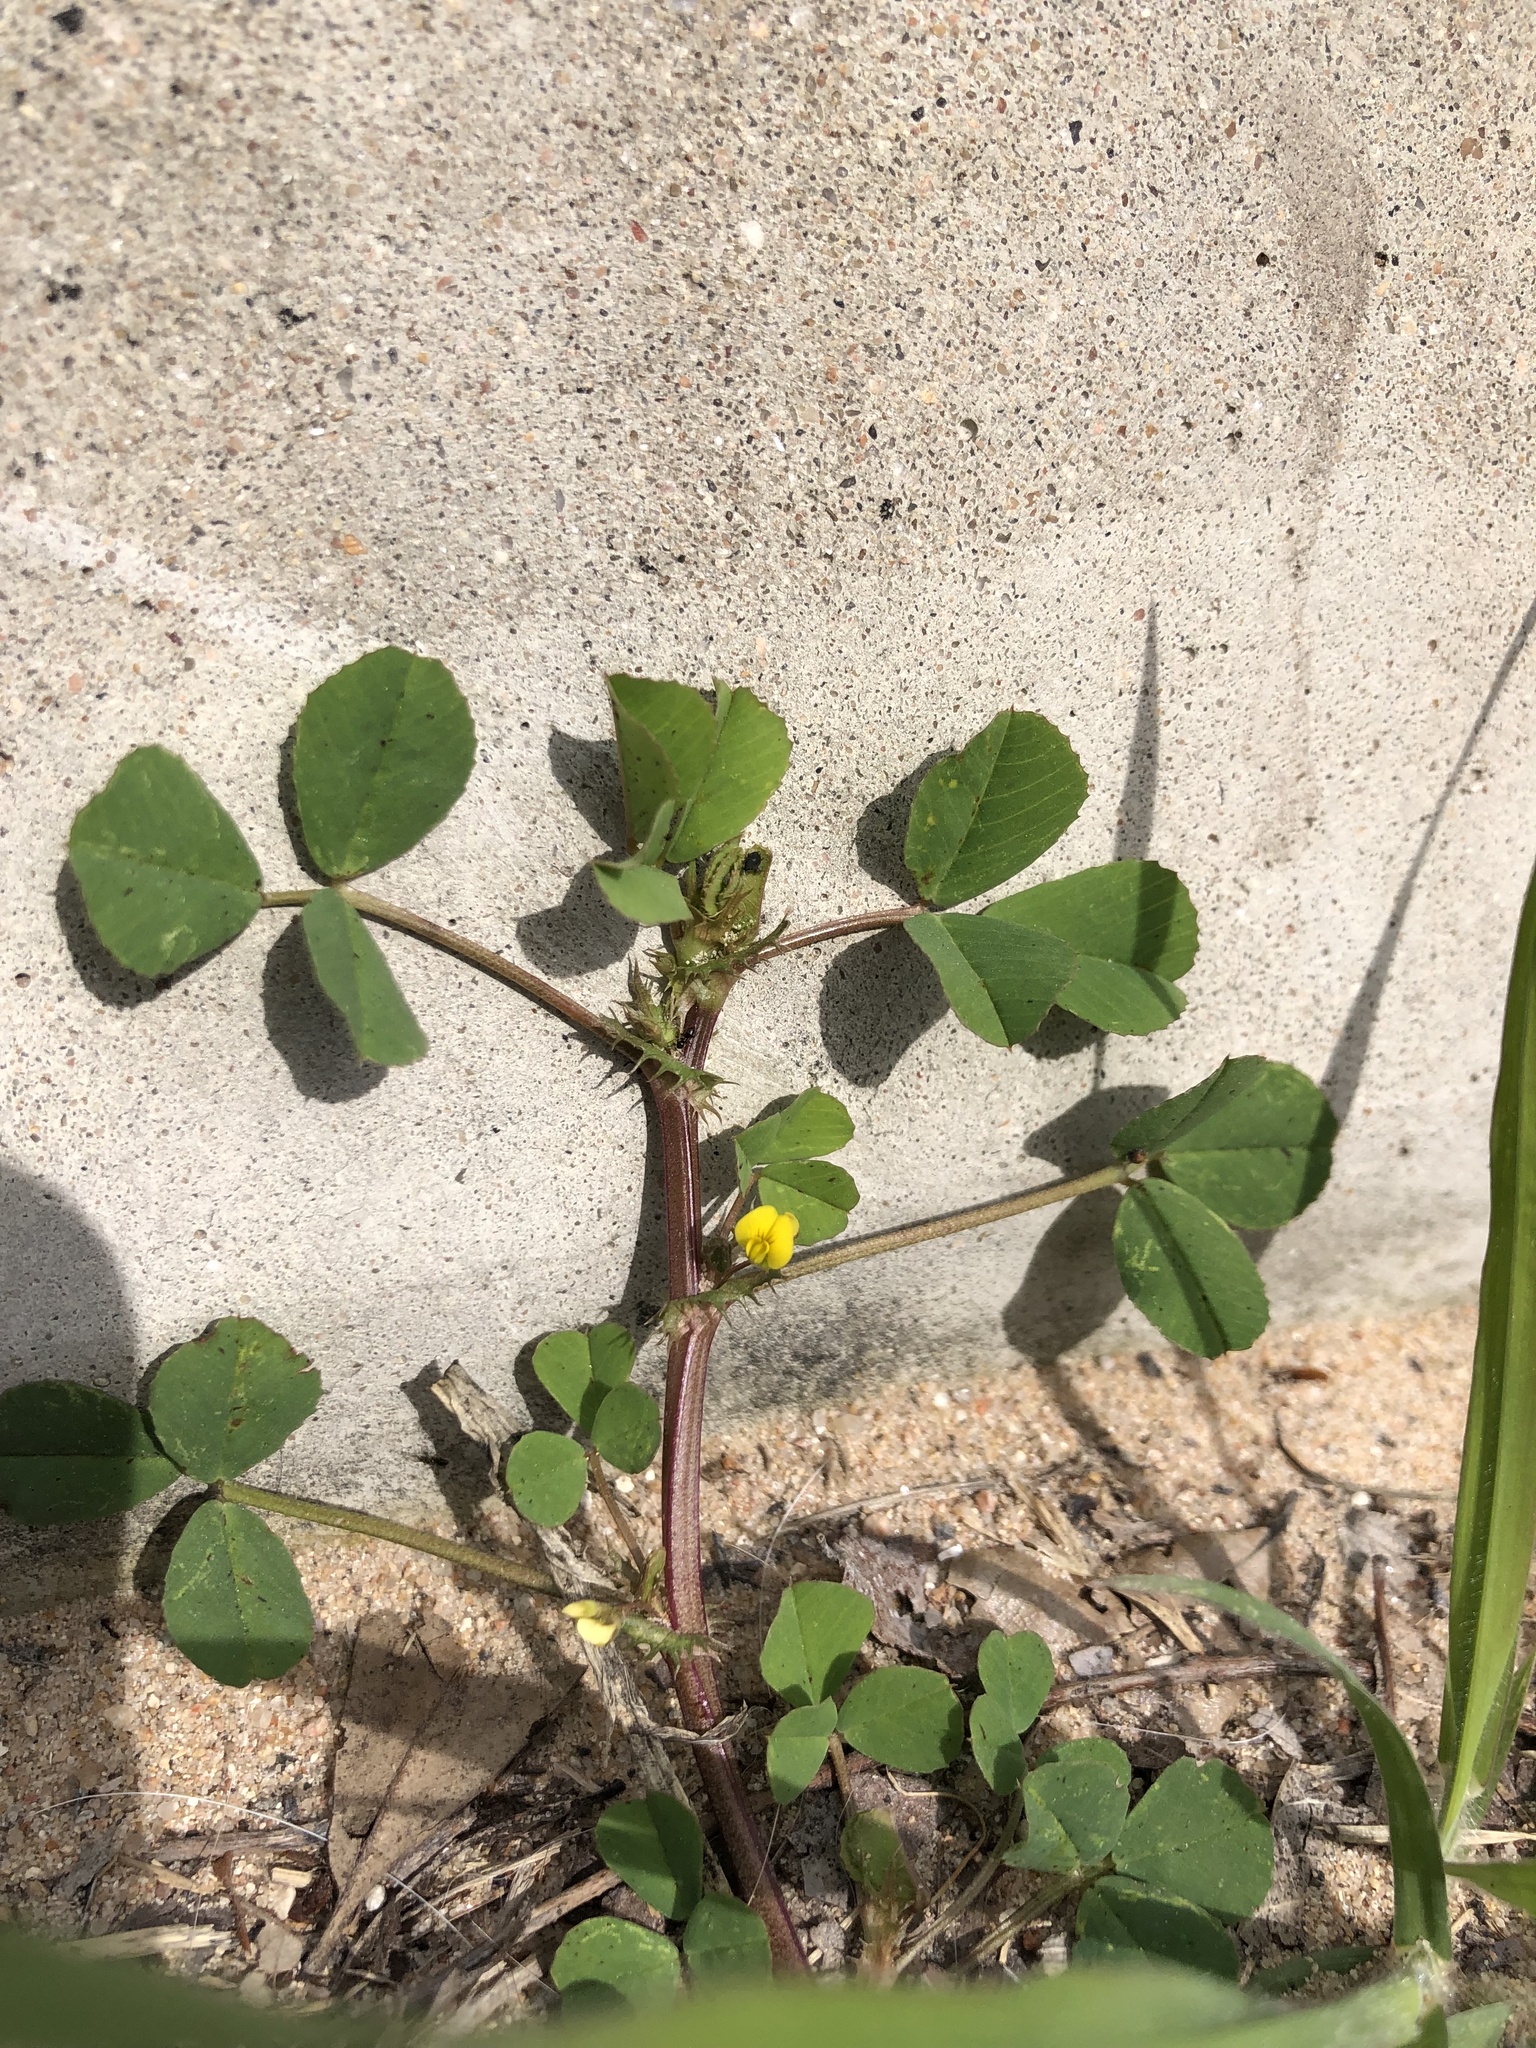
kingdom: Plantae
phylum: Tracheophyta
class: Magnoliopsida
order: Fabales
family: Fabaceae
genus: Medicago
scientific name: Medicago polymorpha
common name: Burclover
